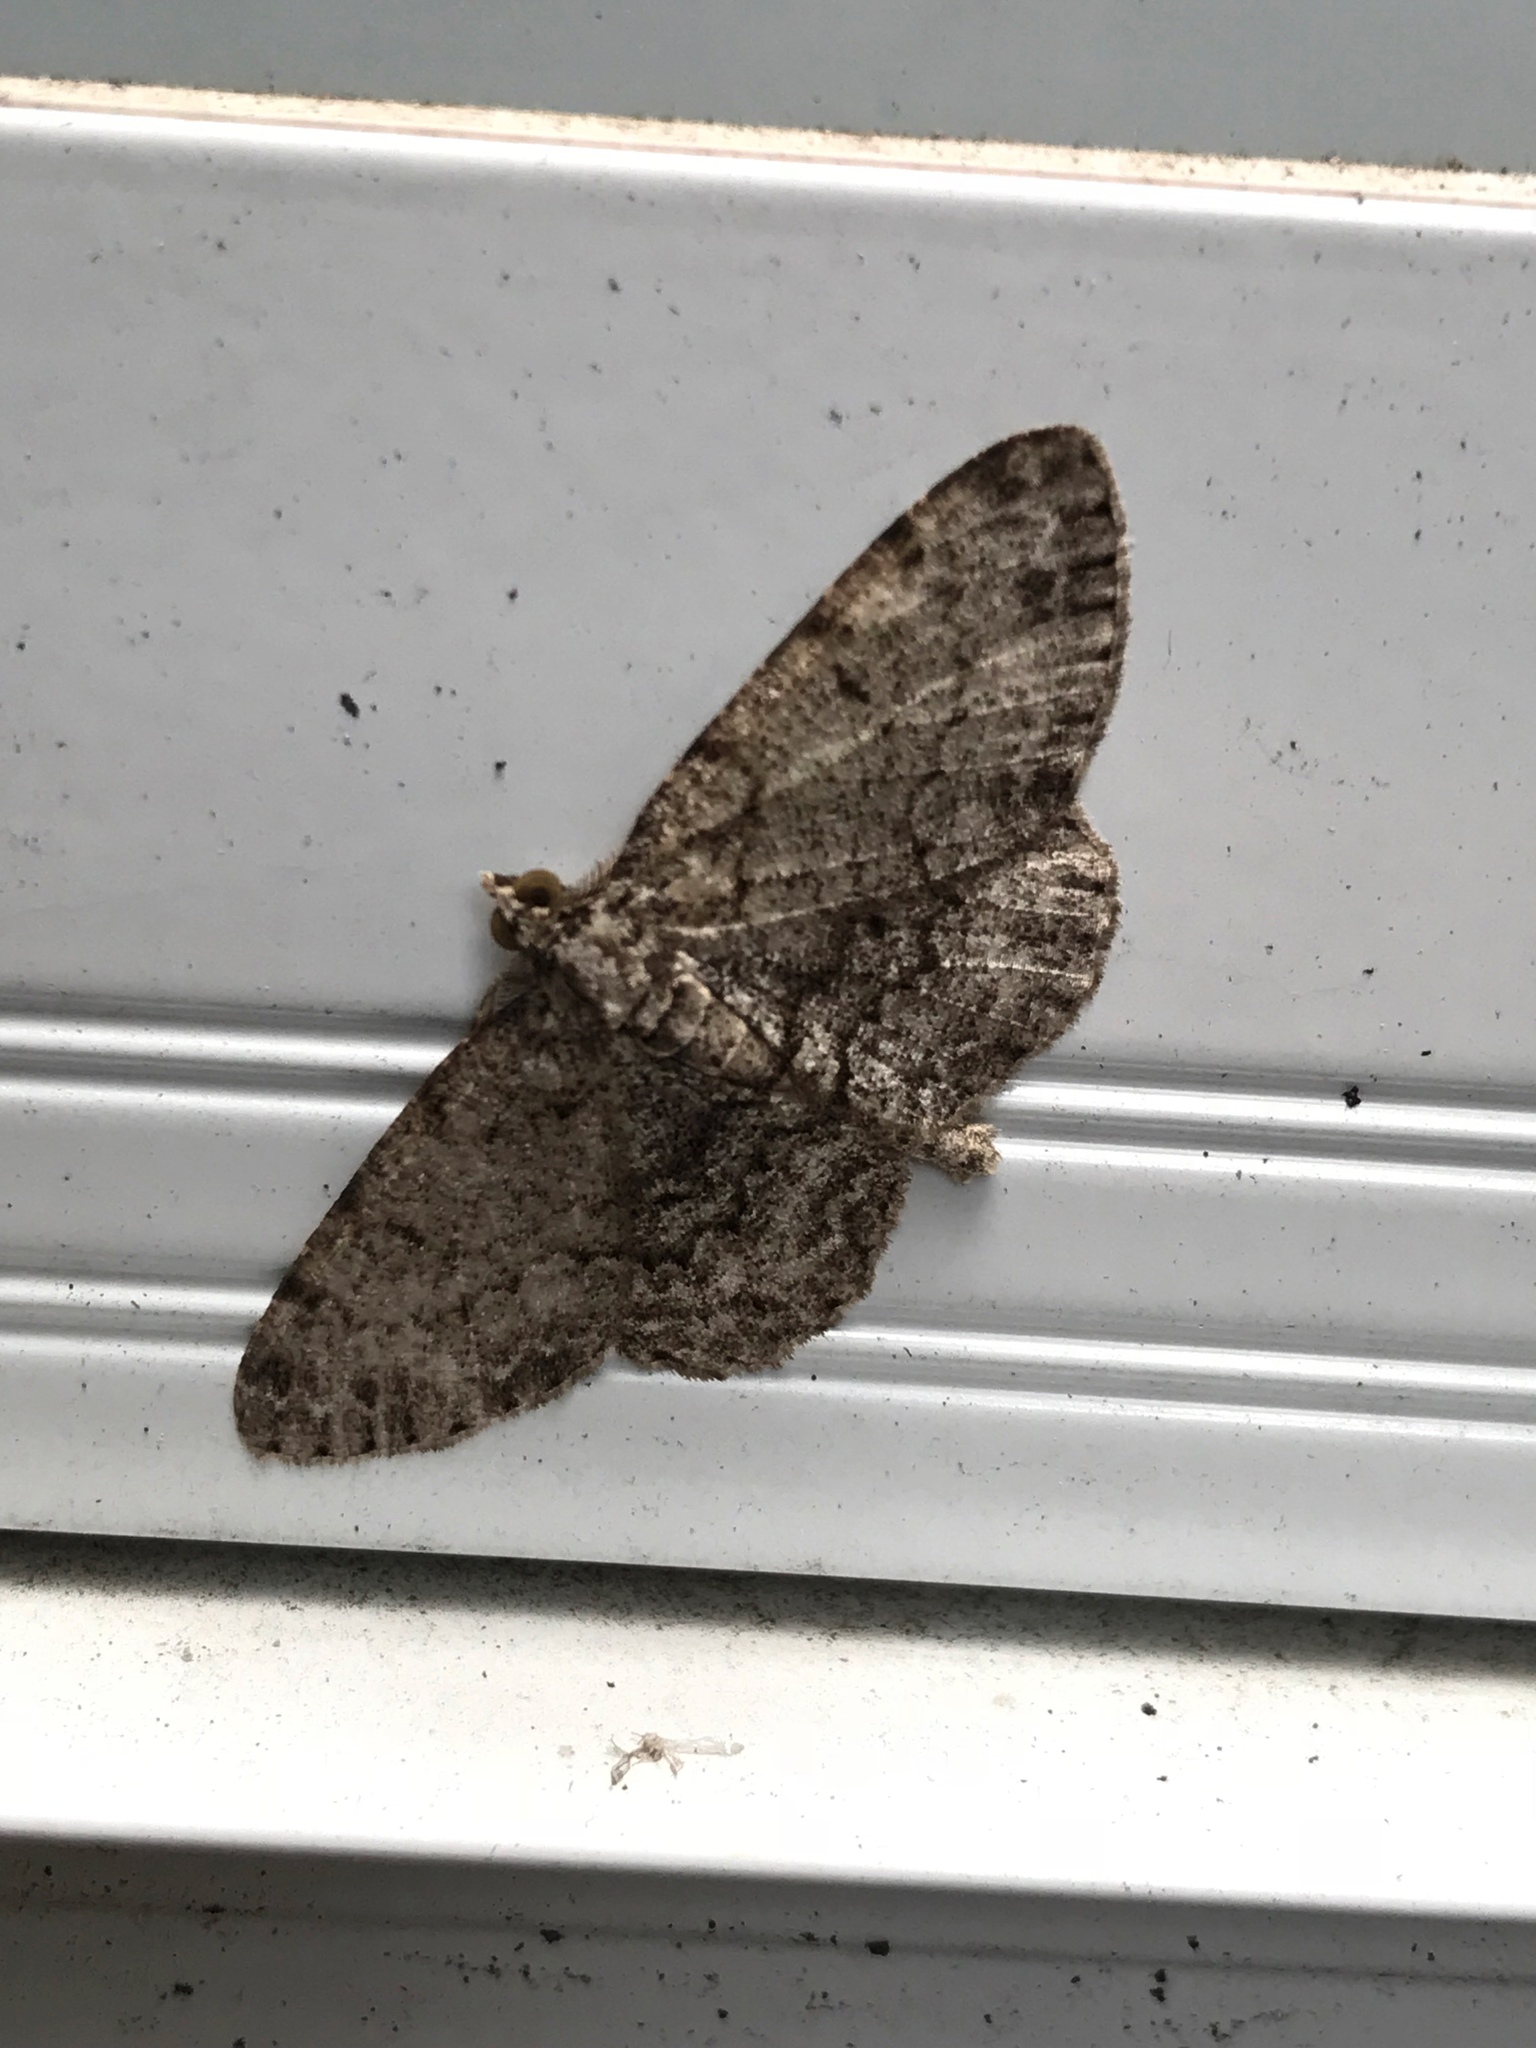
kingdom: Animalia
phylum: Arthropoda
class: Insecta
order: Lepidoptera
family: Geometridae
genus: Protoboarmia
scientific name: Protoboarmia porcelaria
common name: Porcelain gray
